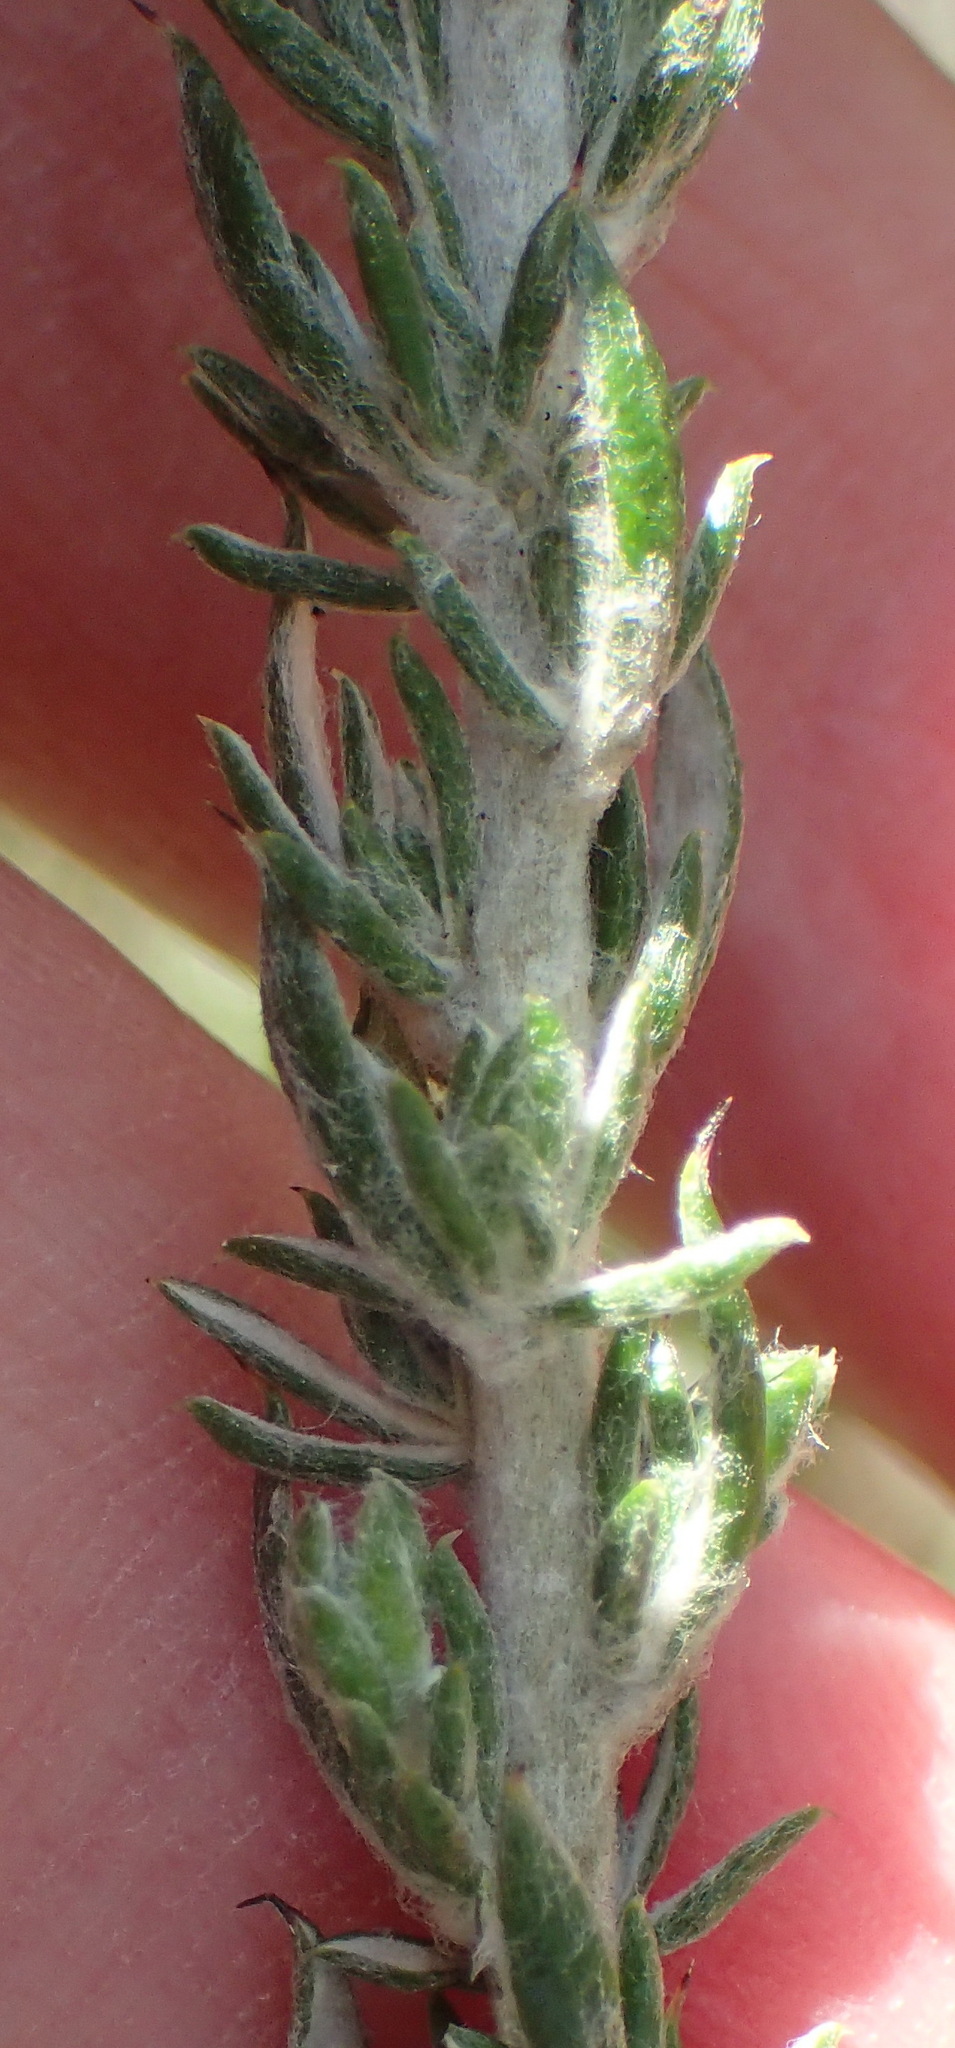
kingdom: Plantae
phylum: Tracheophyta
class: Magnoliopsida
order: Asterales
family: Asteraceae
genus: Metalasia
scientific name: Metalasia pungens
